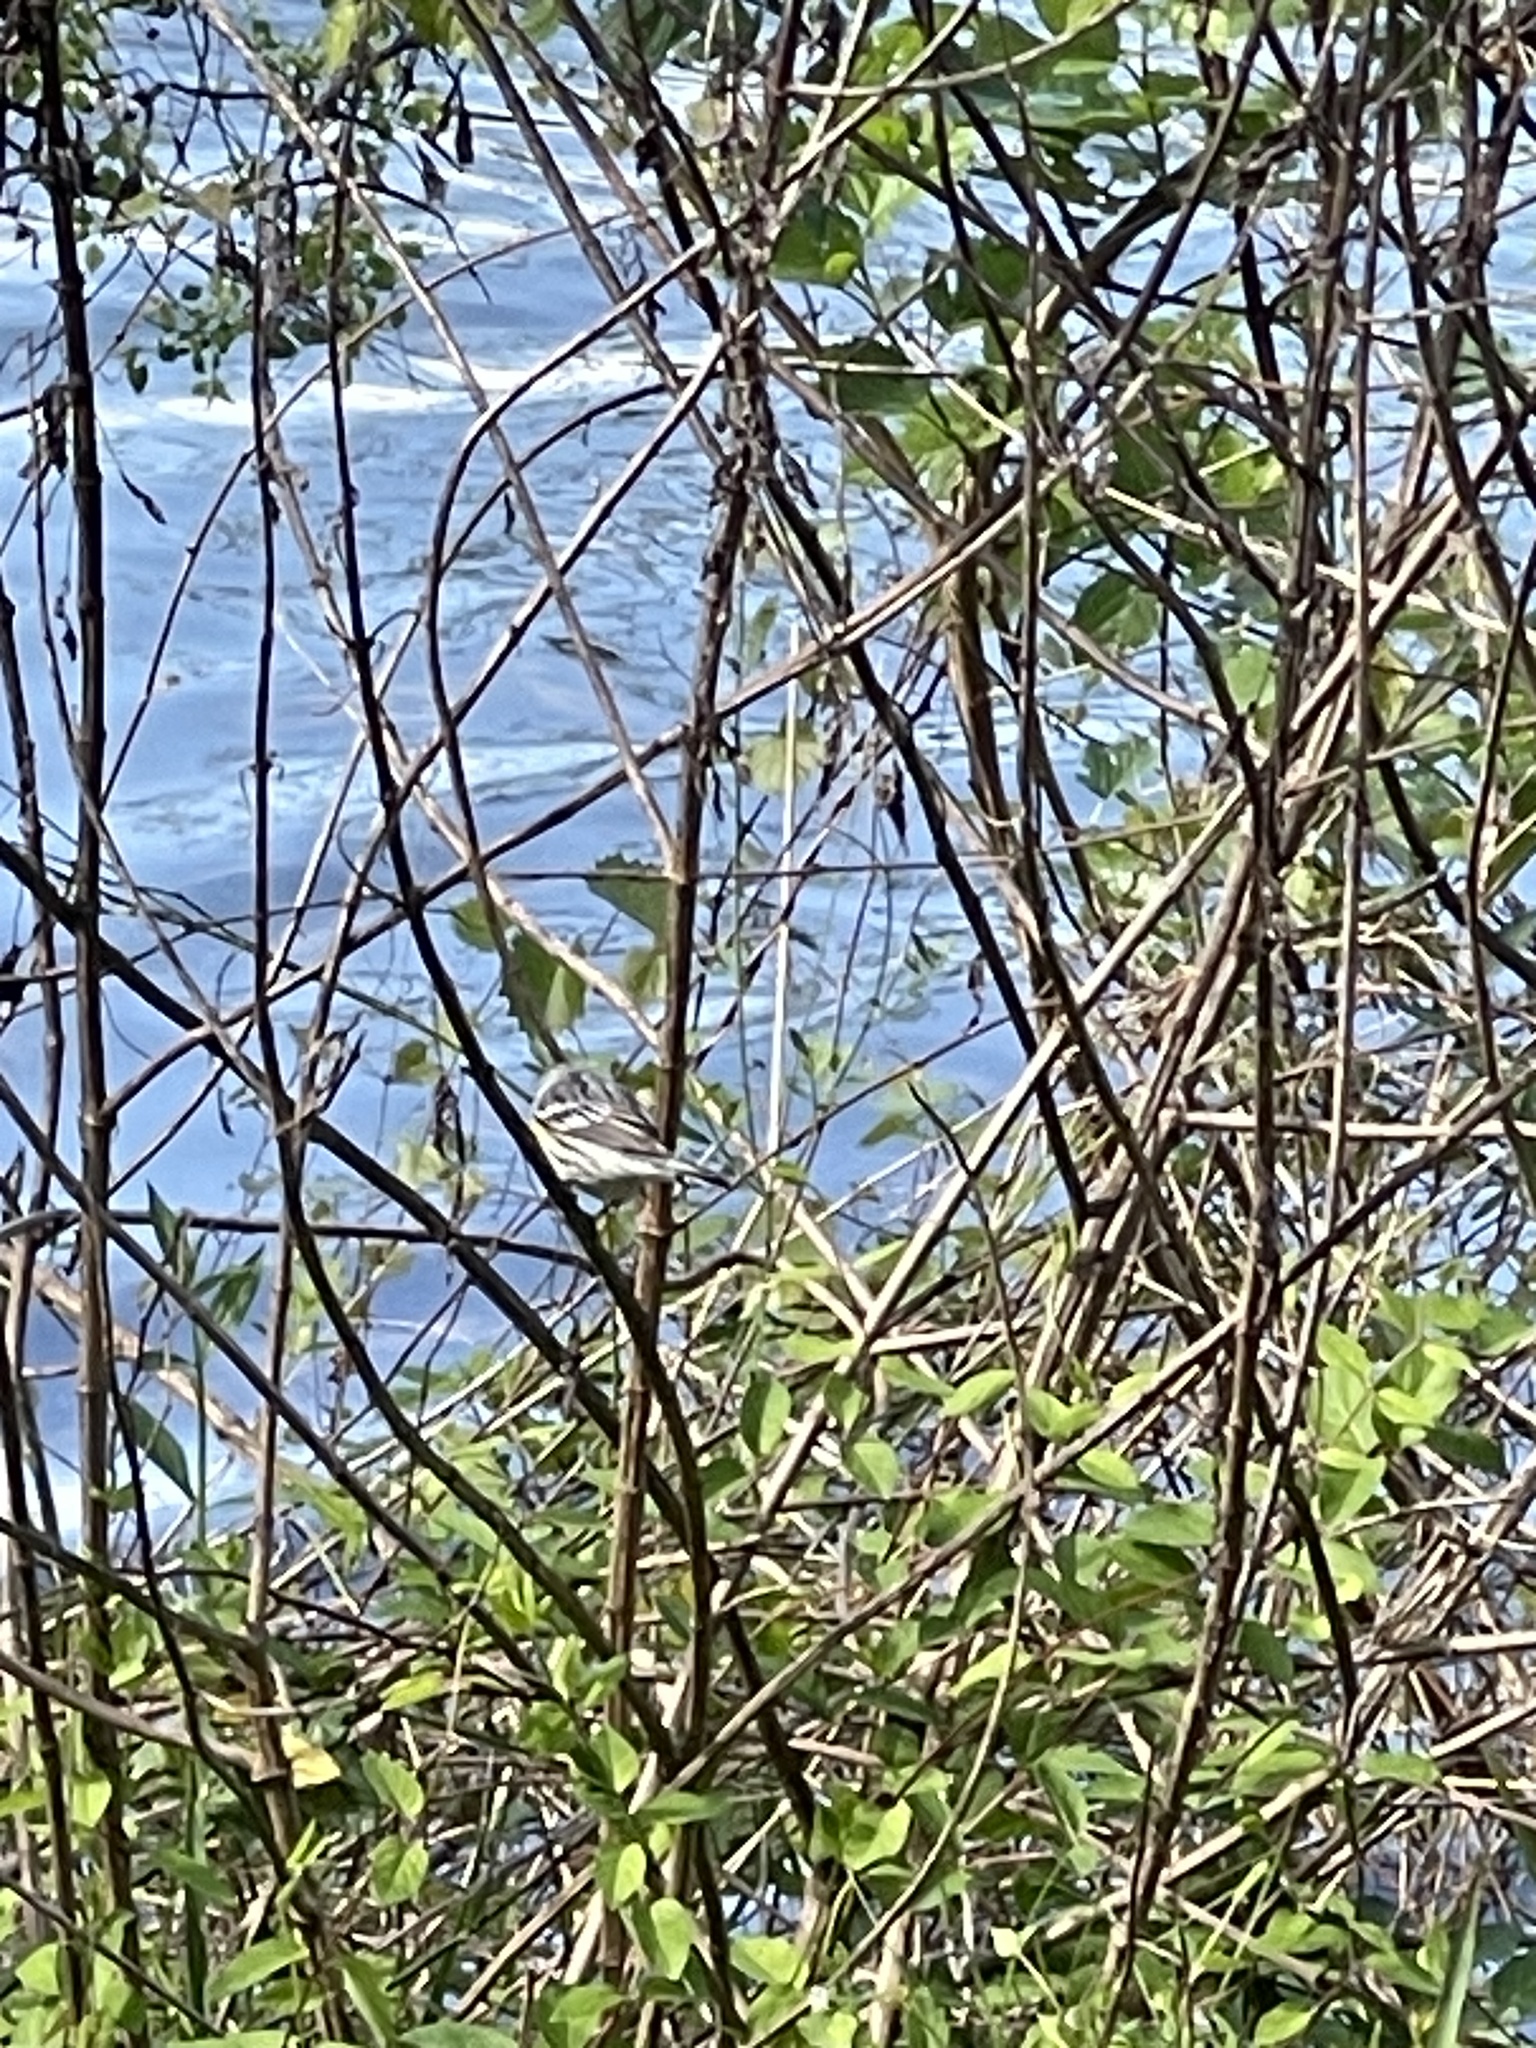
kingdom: Animalia
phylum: Chordata
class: Aves
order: Passeriformes
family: Parulidae
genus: Setophaga
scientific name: Setophaga coronata
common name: Myrtle warbler
